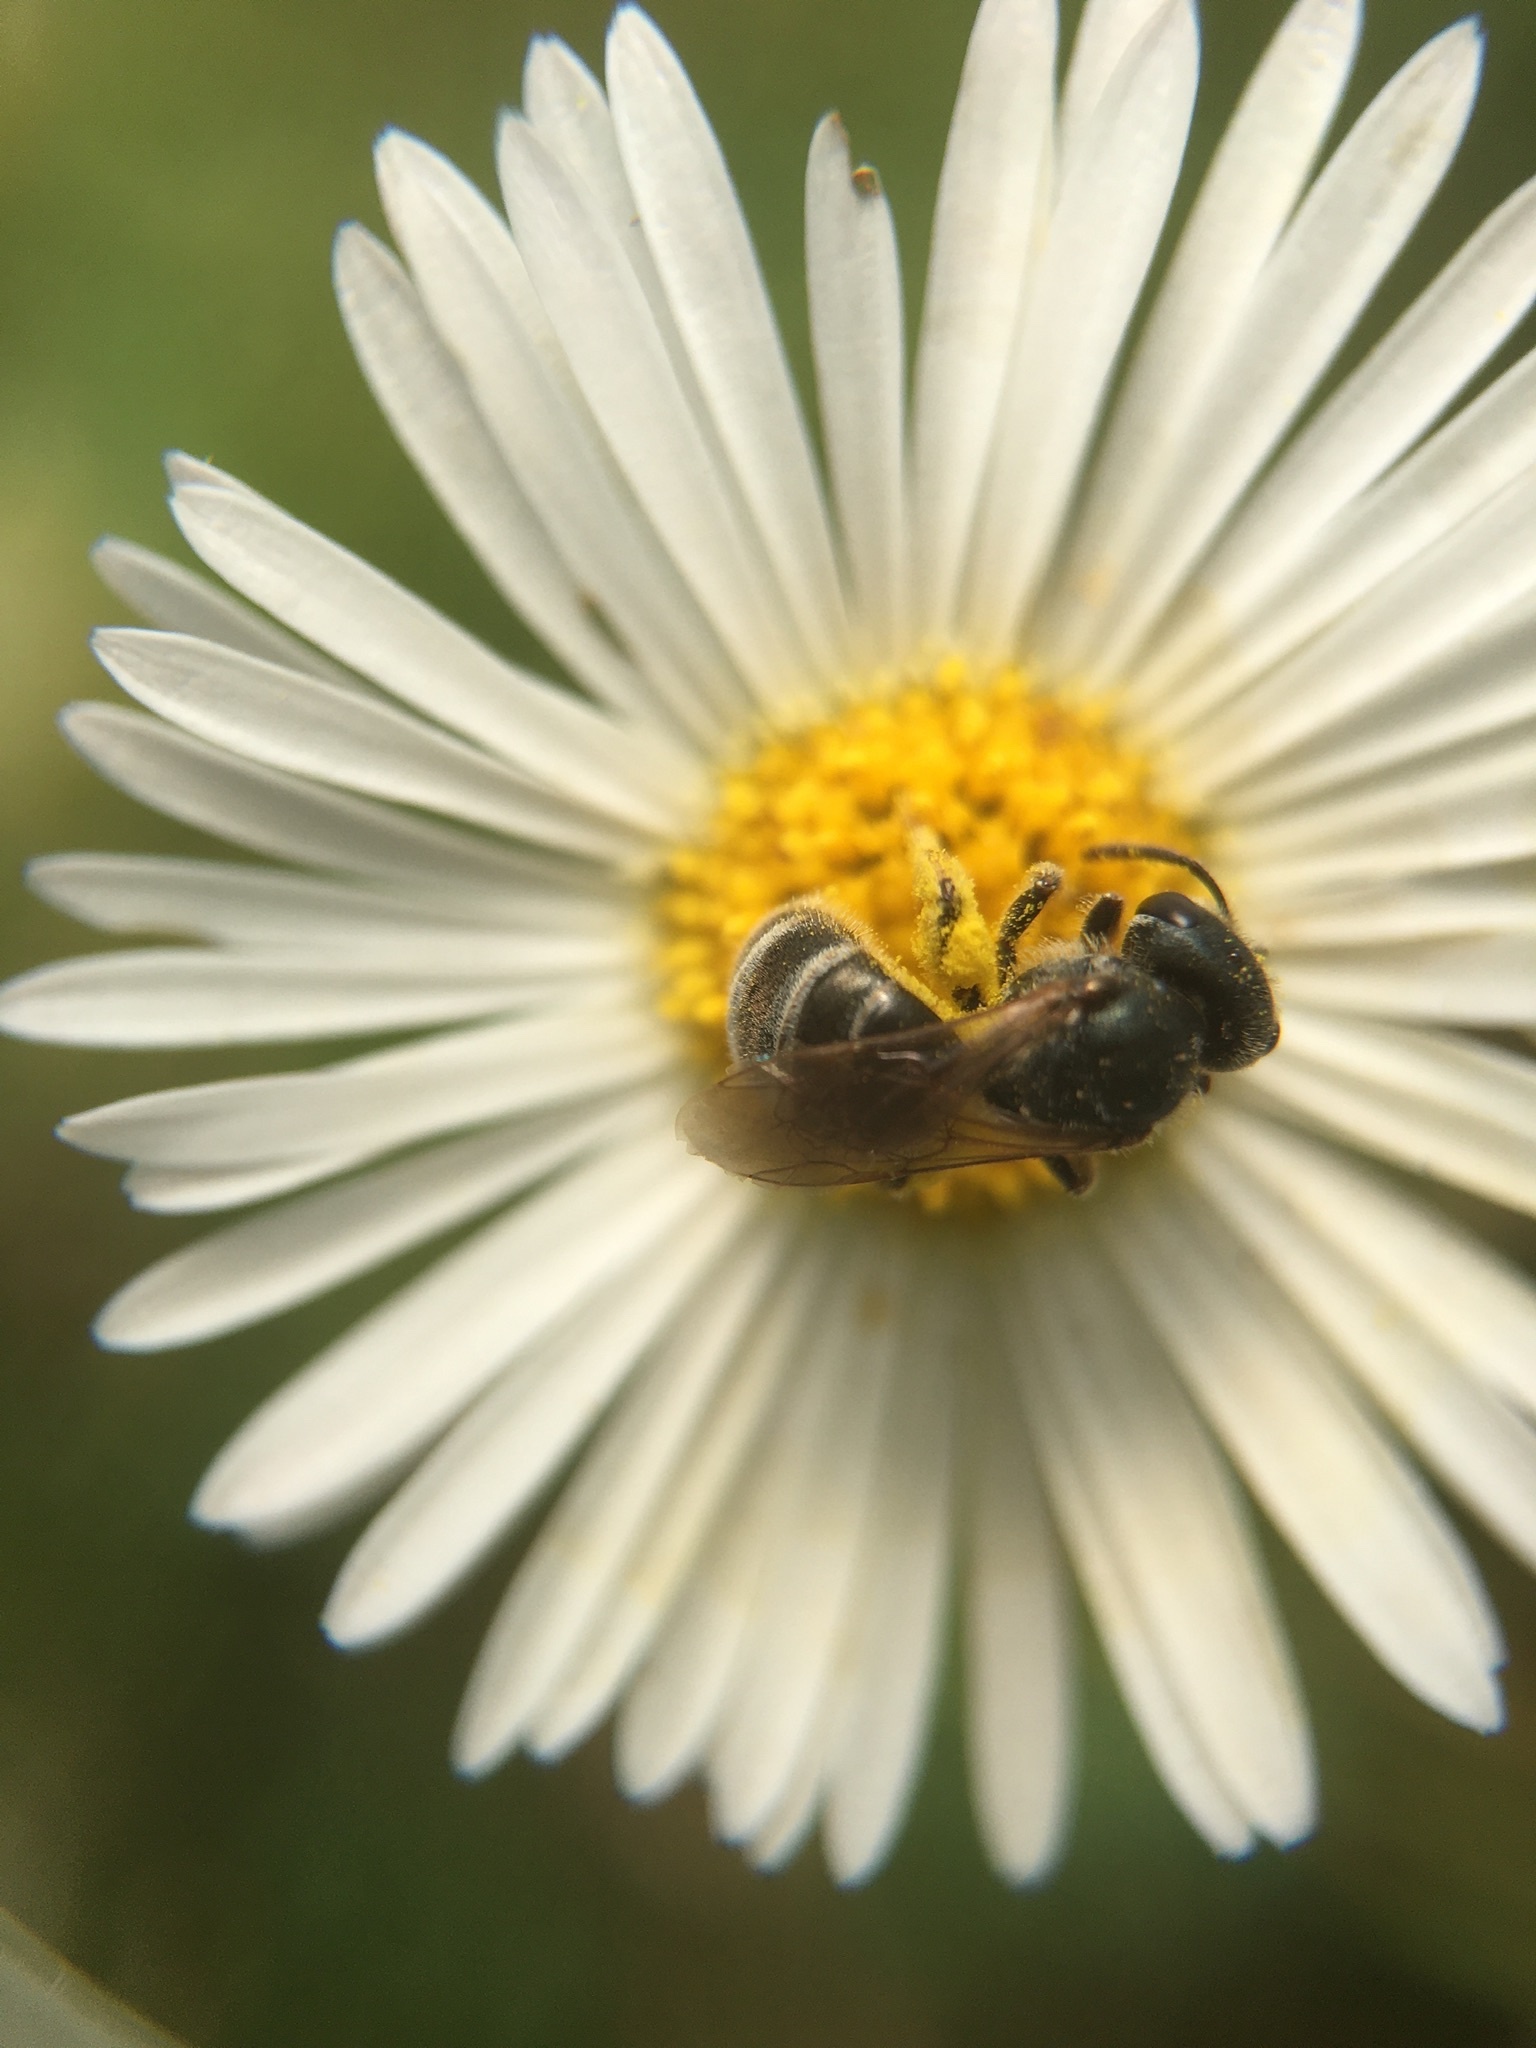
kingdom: Animalia
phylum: Arthropoda
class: Insecta
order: Hymenoptera
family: Halictidae
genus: Halictus
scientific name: Halictus tripartitus
